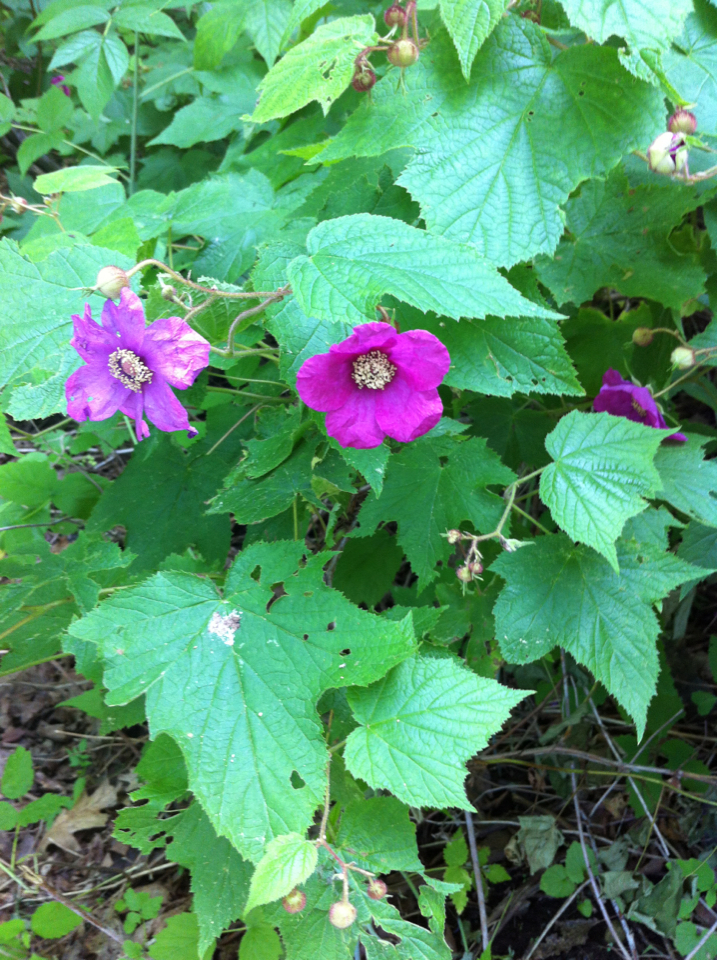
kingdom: Plantae
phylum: Tracheophyta
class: Magnoliopsida
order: Rosales
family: Rosaceae
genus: Rubus
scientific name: Rubus odoratus
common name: Purple-flowered raspberry
